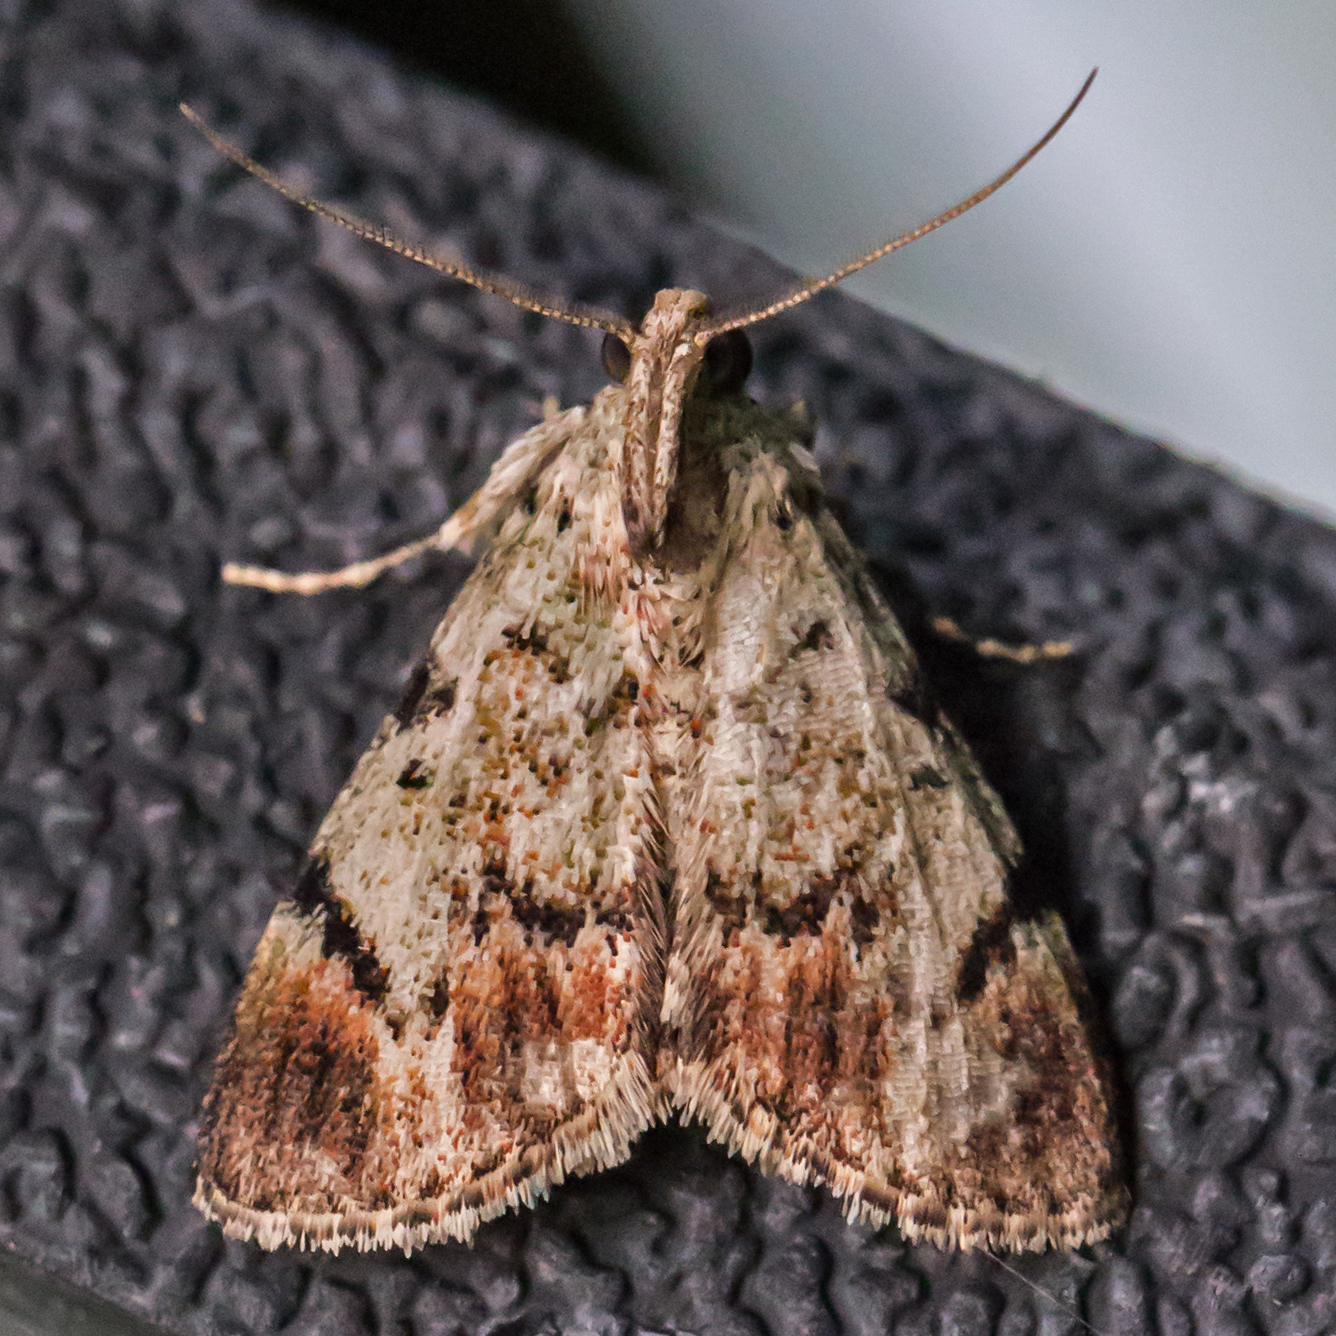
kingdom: Animalia
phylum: Arthropoda
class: Insecta
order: Lepidoptera
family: Pyralidae
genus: Epipaschia
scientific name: Epipaschia superatalis
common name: Dimorphic macalla moth
